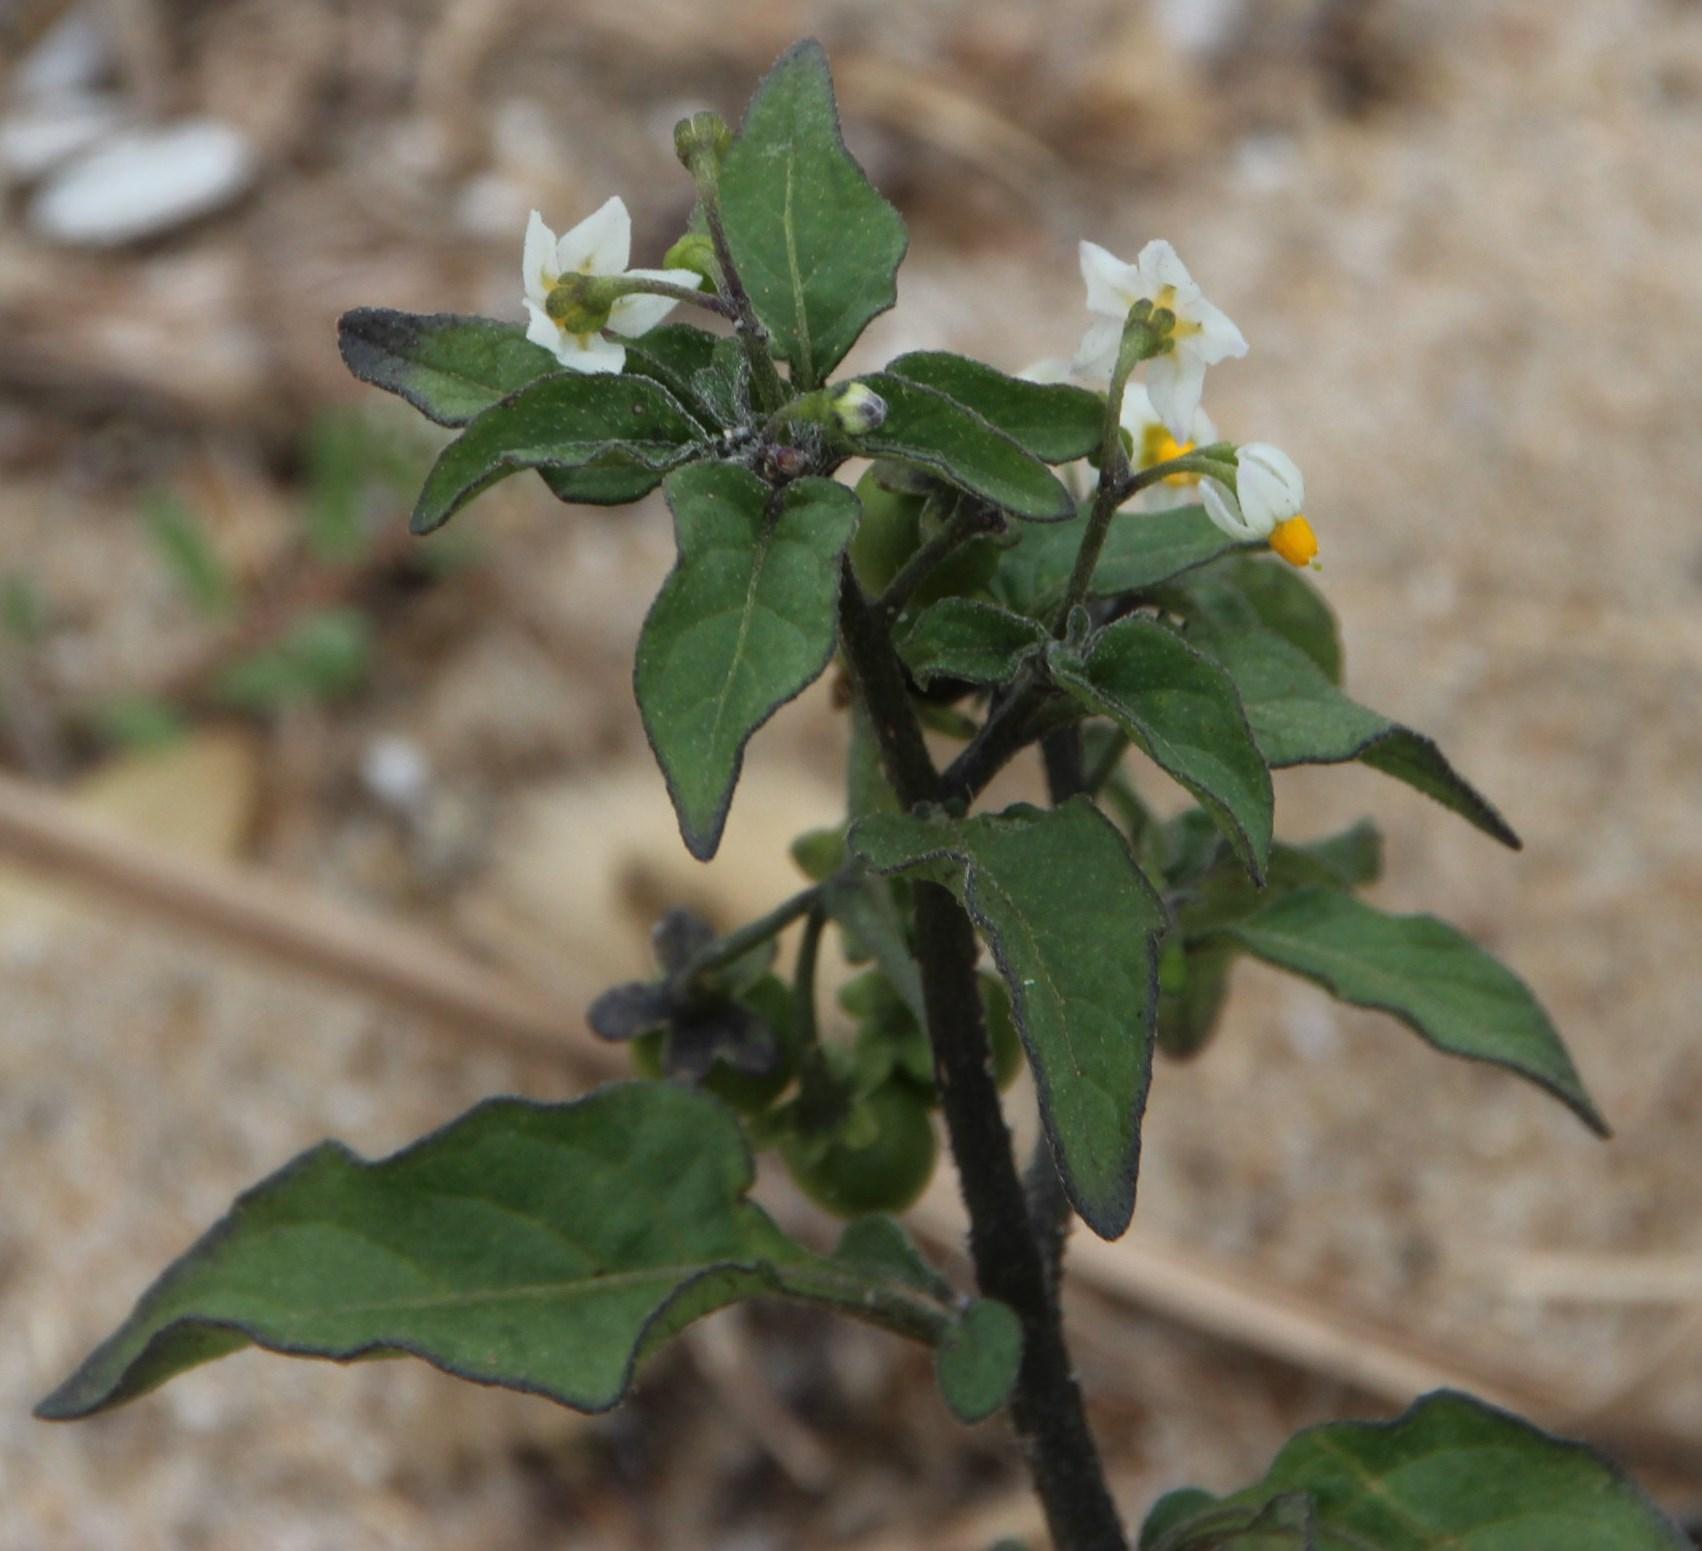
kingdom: Plantae
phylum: Tracheophyta
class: Magnoliopsida
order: Solanales
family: Solanaceae
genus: Solanum
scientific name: Solanum nigrum
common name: Black nightshade
